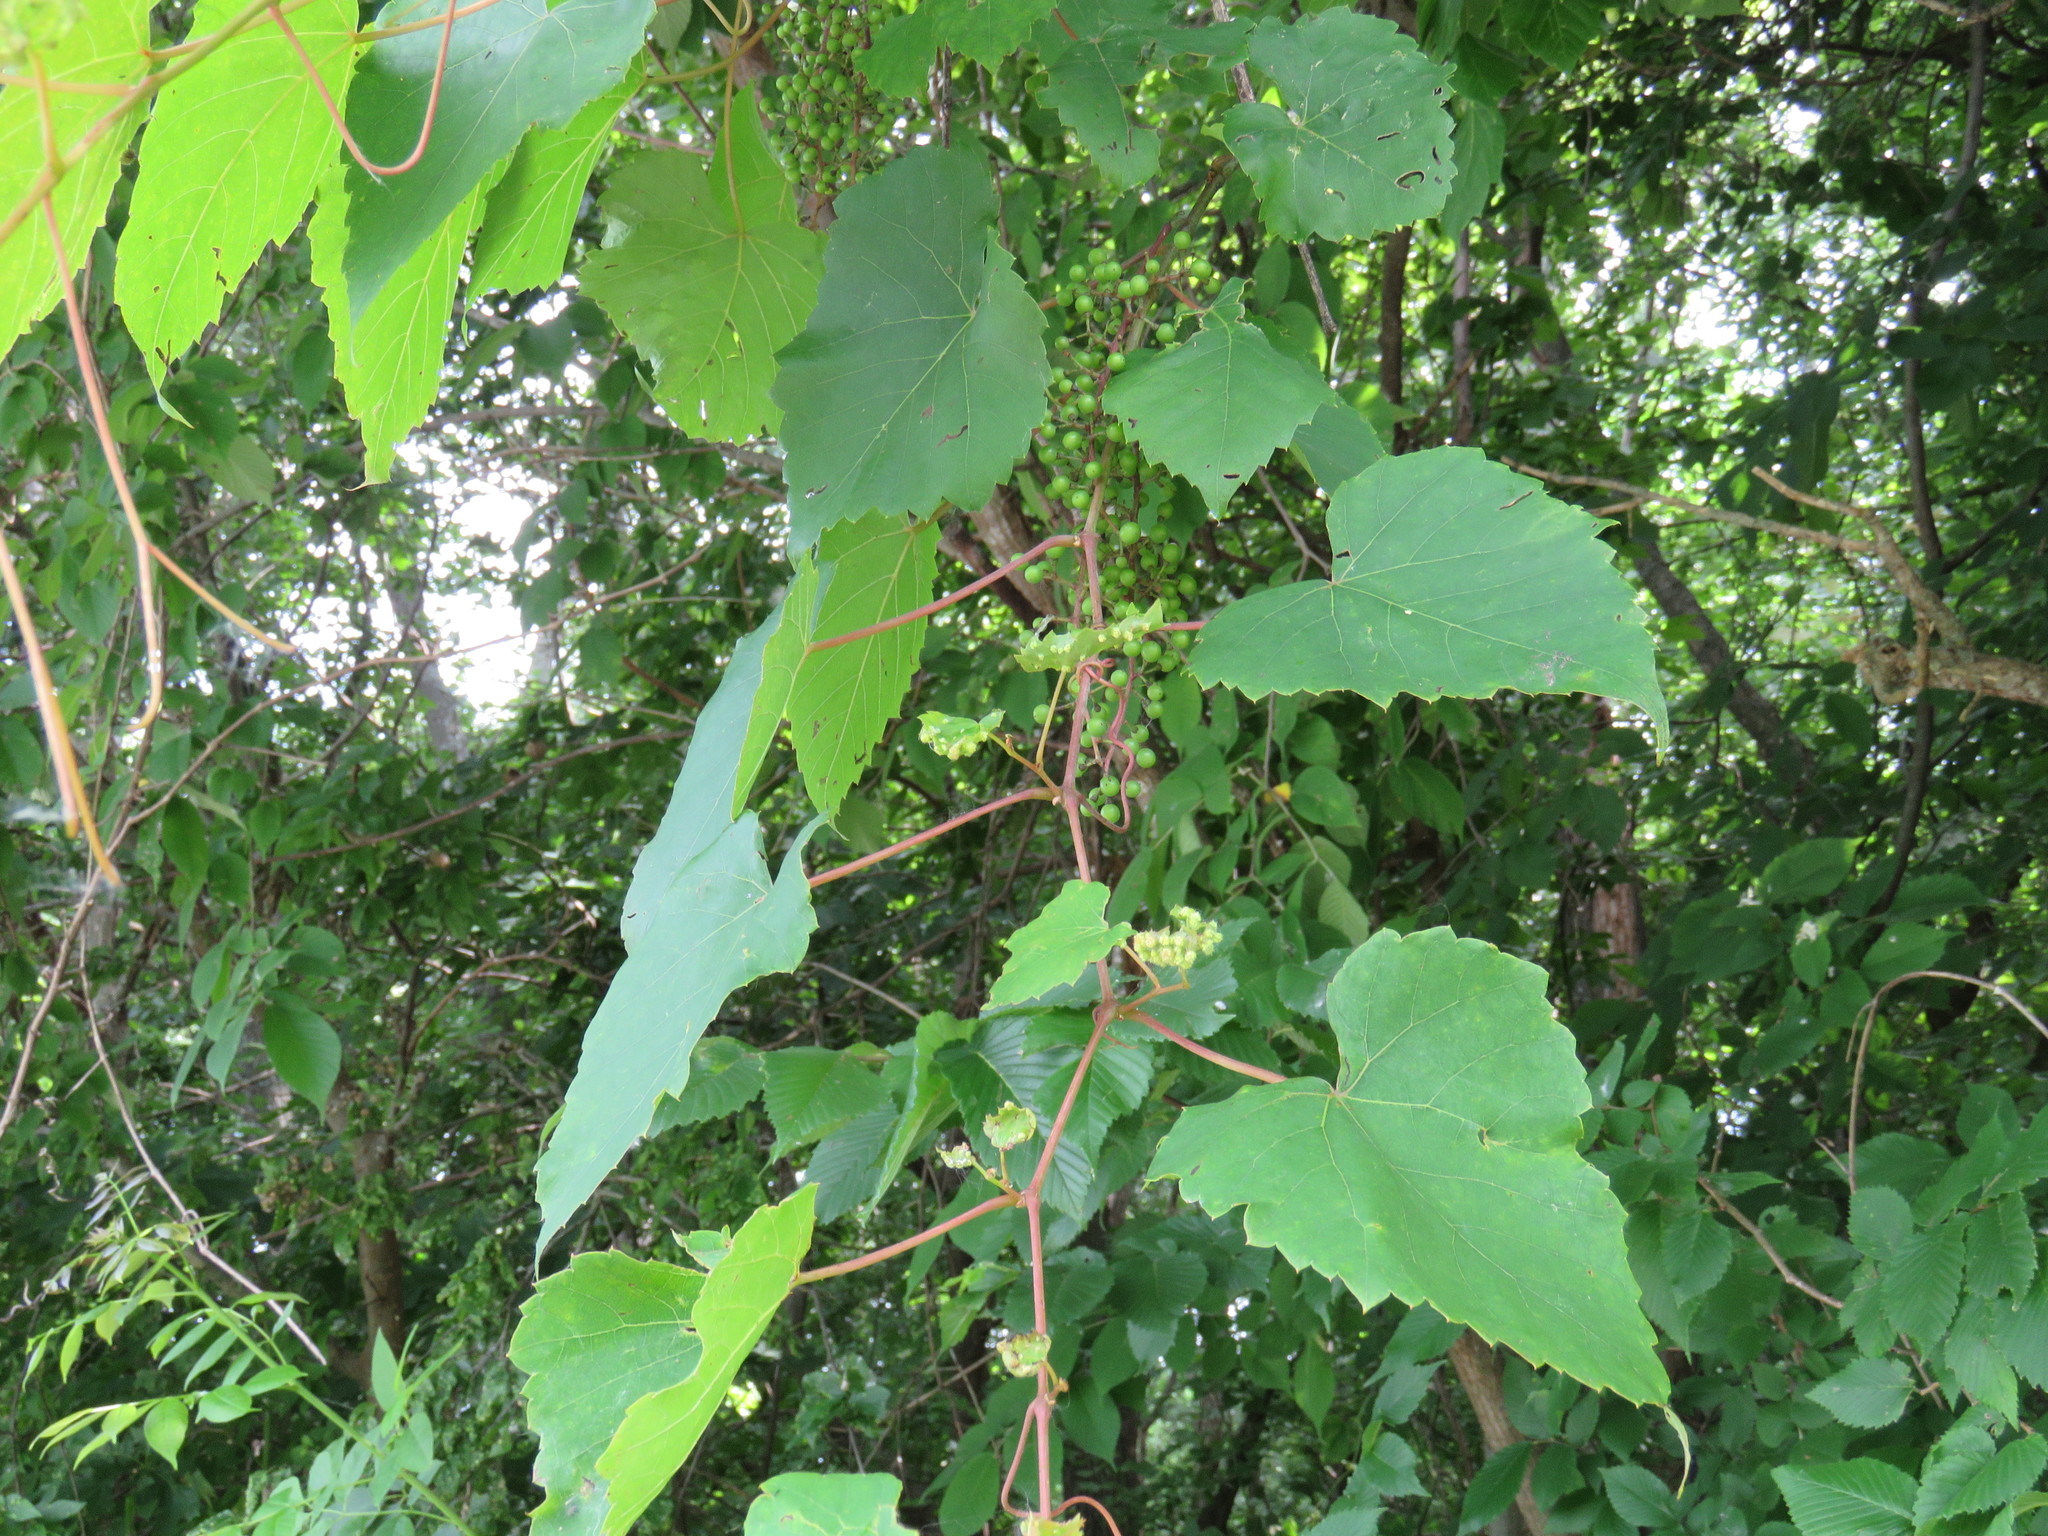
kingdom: Plantae
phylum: Tracheophyta
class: Magnoliopsida
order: Vitales
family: Vitaceae
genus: Vitis
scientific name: Vitis vulpina
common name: Frost grape
